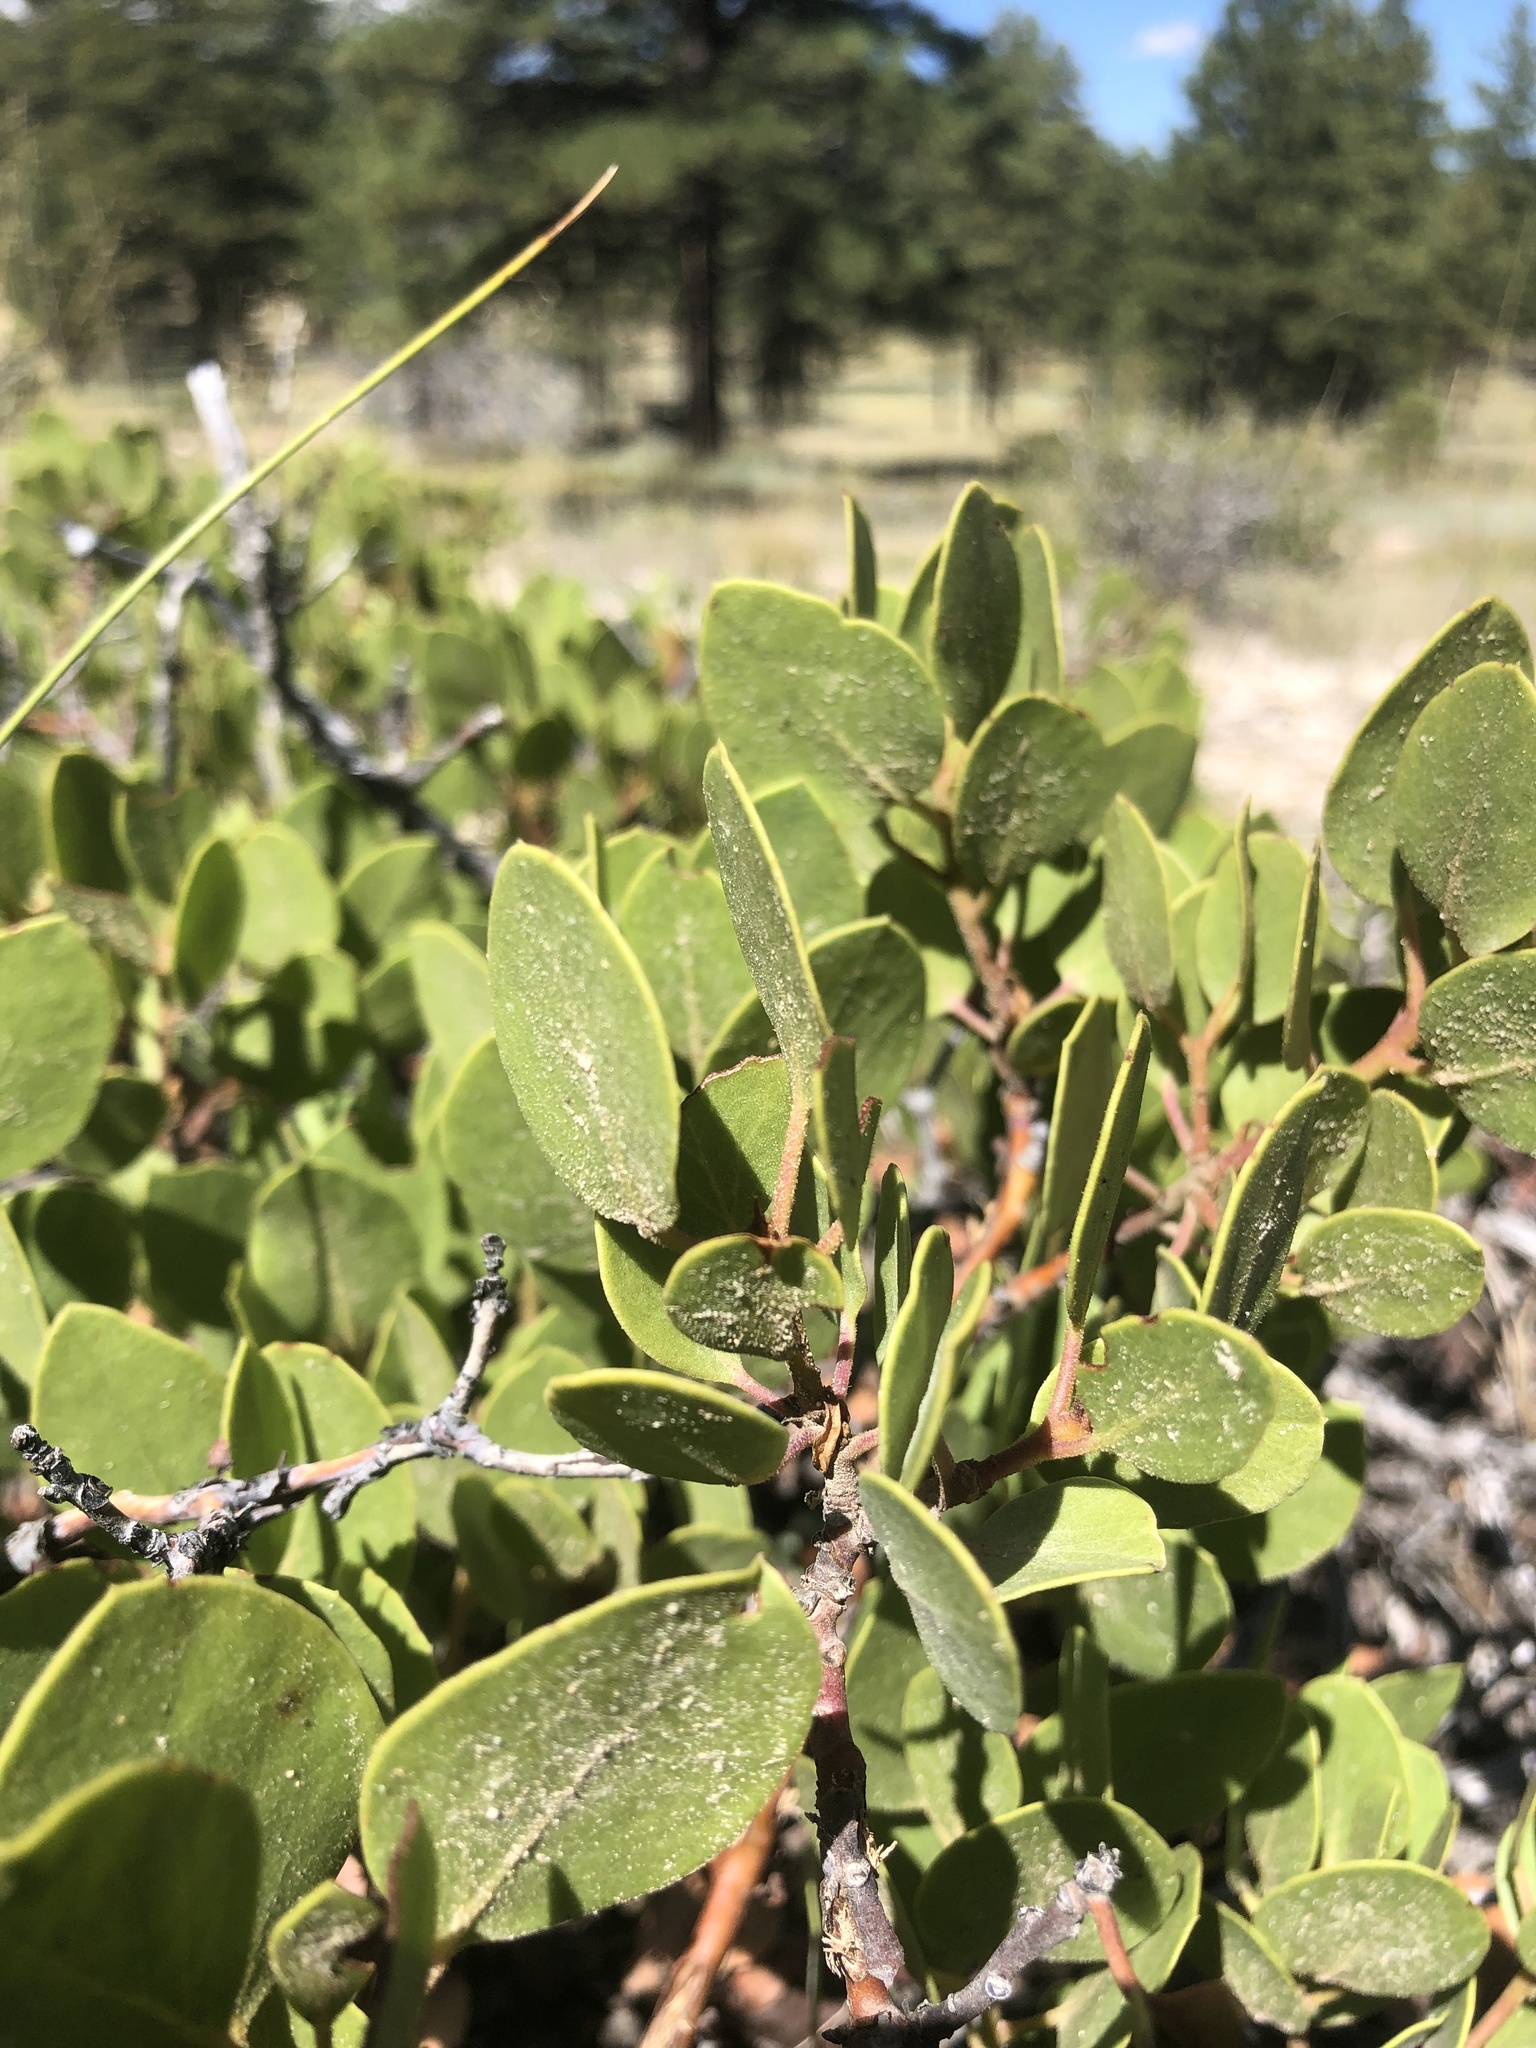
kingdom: Plantae
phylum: Tracheophyta
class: Magnoliopsida
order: Ericales
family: Ericaceae
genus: Arctostaphylos
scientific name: Arctostaphylos patula
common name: Green-leaf manzanita
